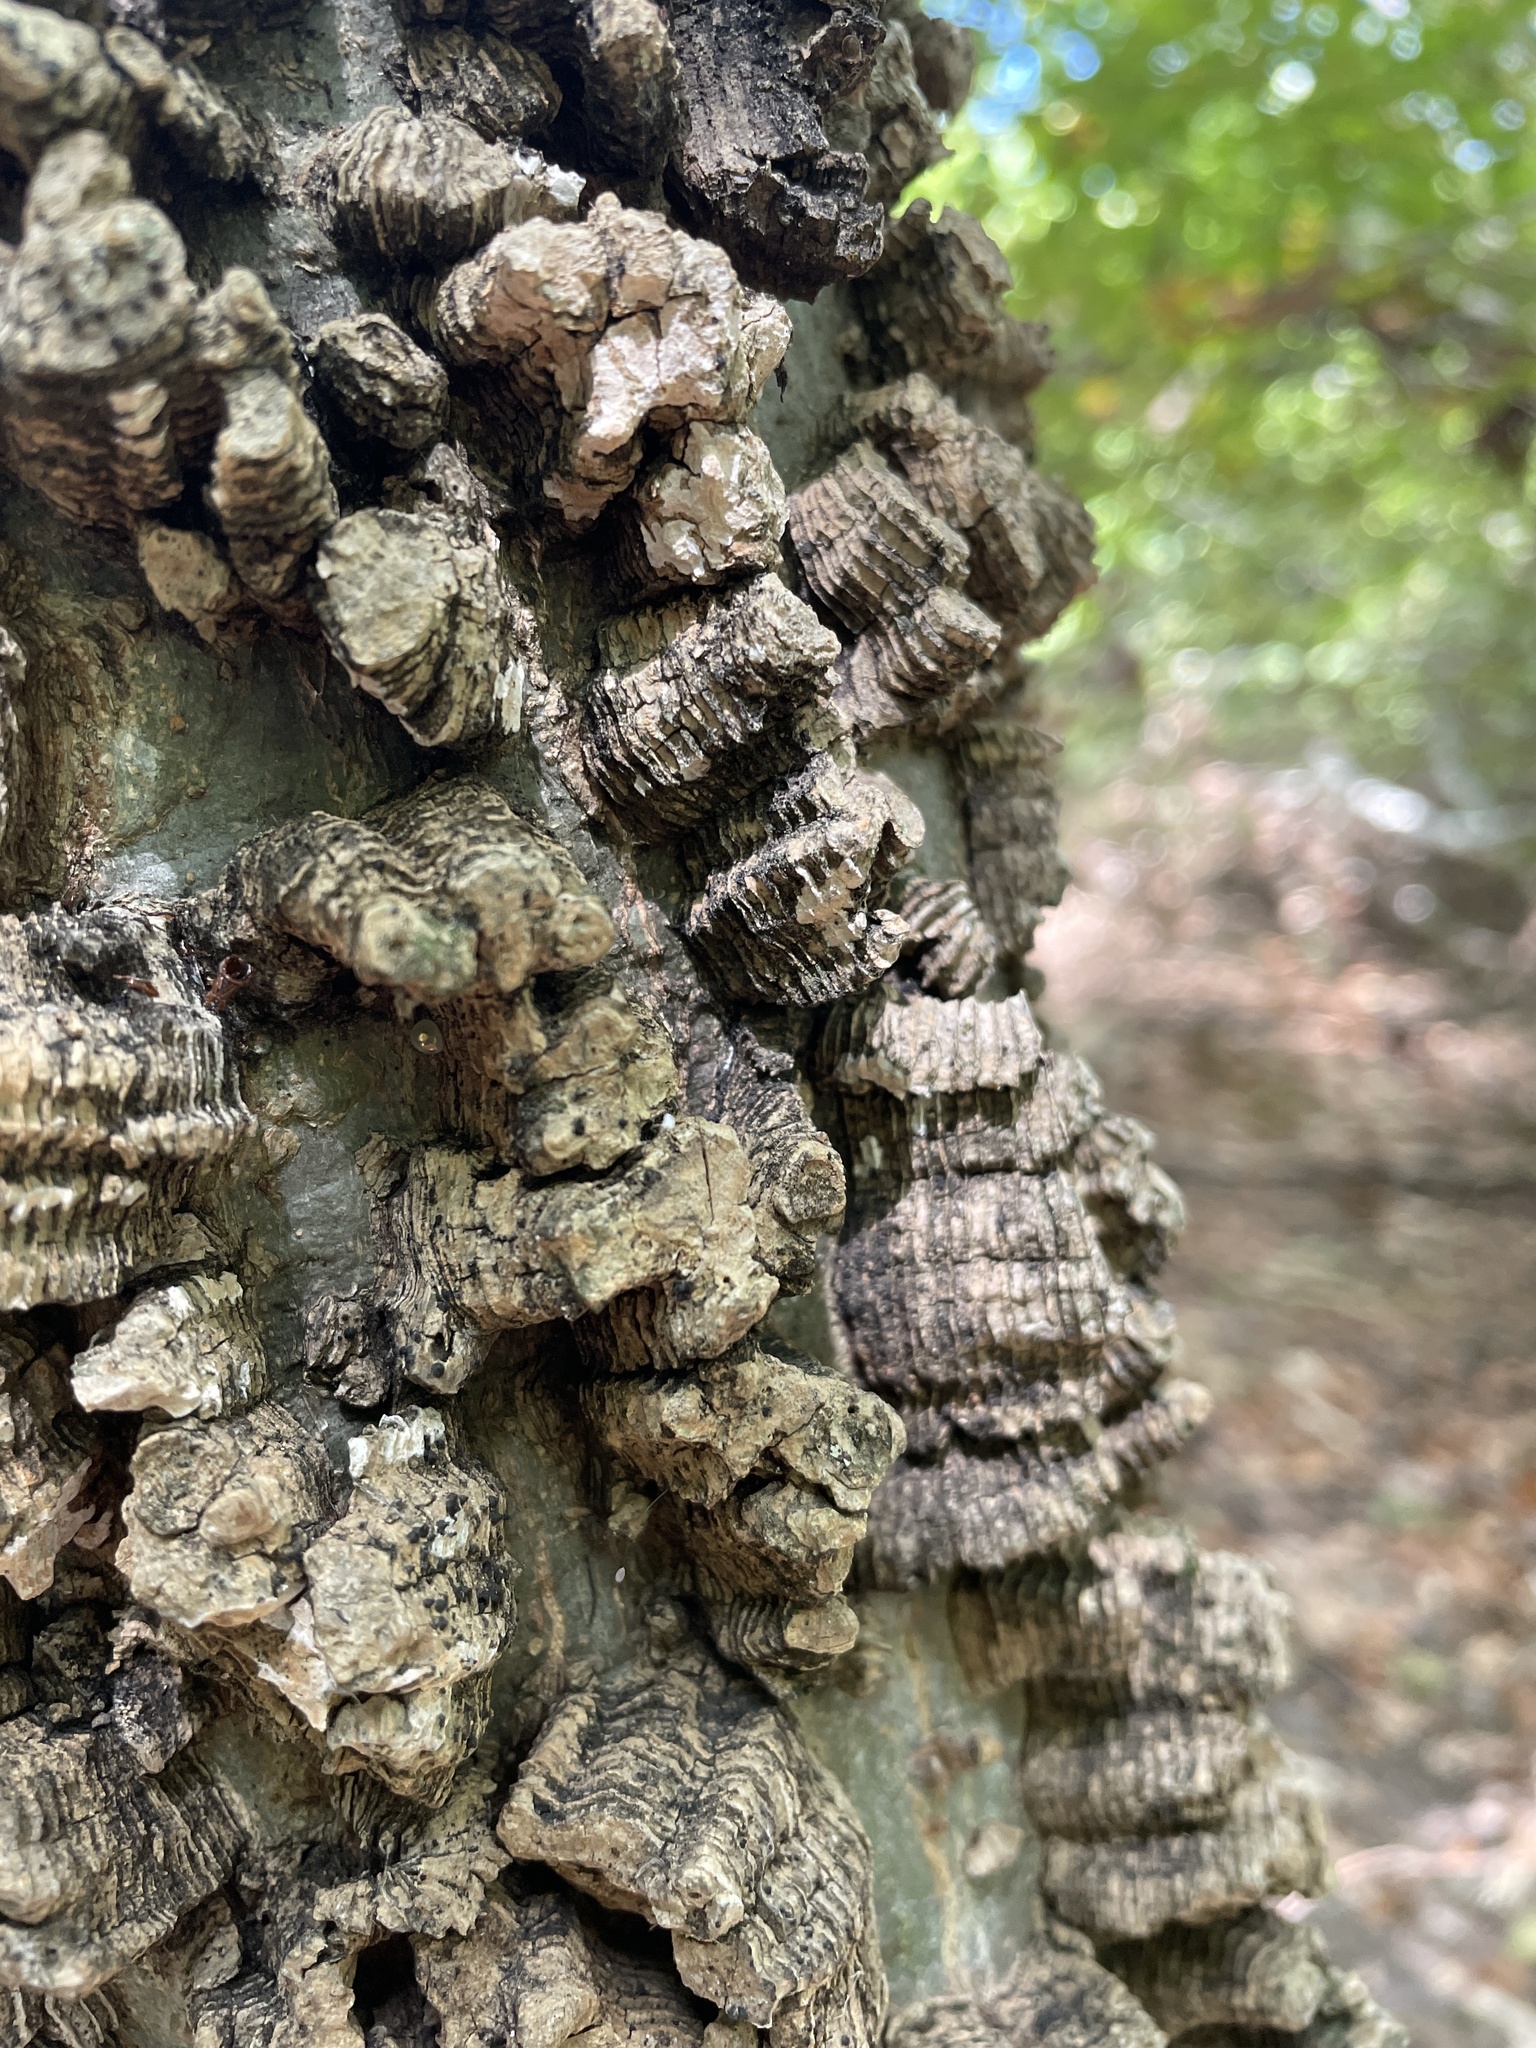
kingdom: Plantae
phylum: Tracheophyta
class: Magnoliopsida
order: Rosales
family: Cannabaceae
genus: Celtis
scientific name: Celtis laevigata
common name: Sugarberry
